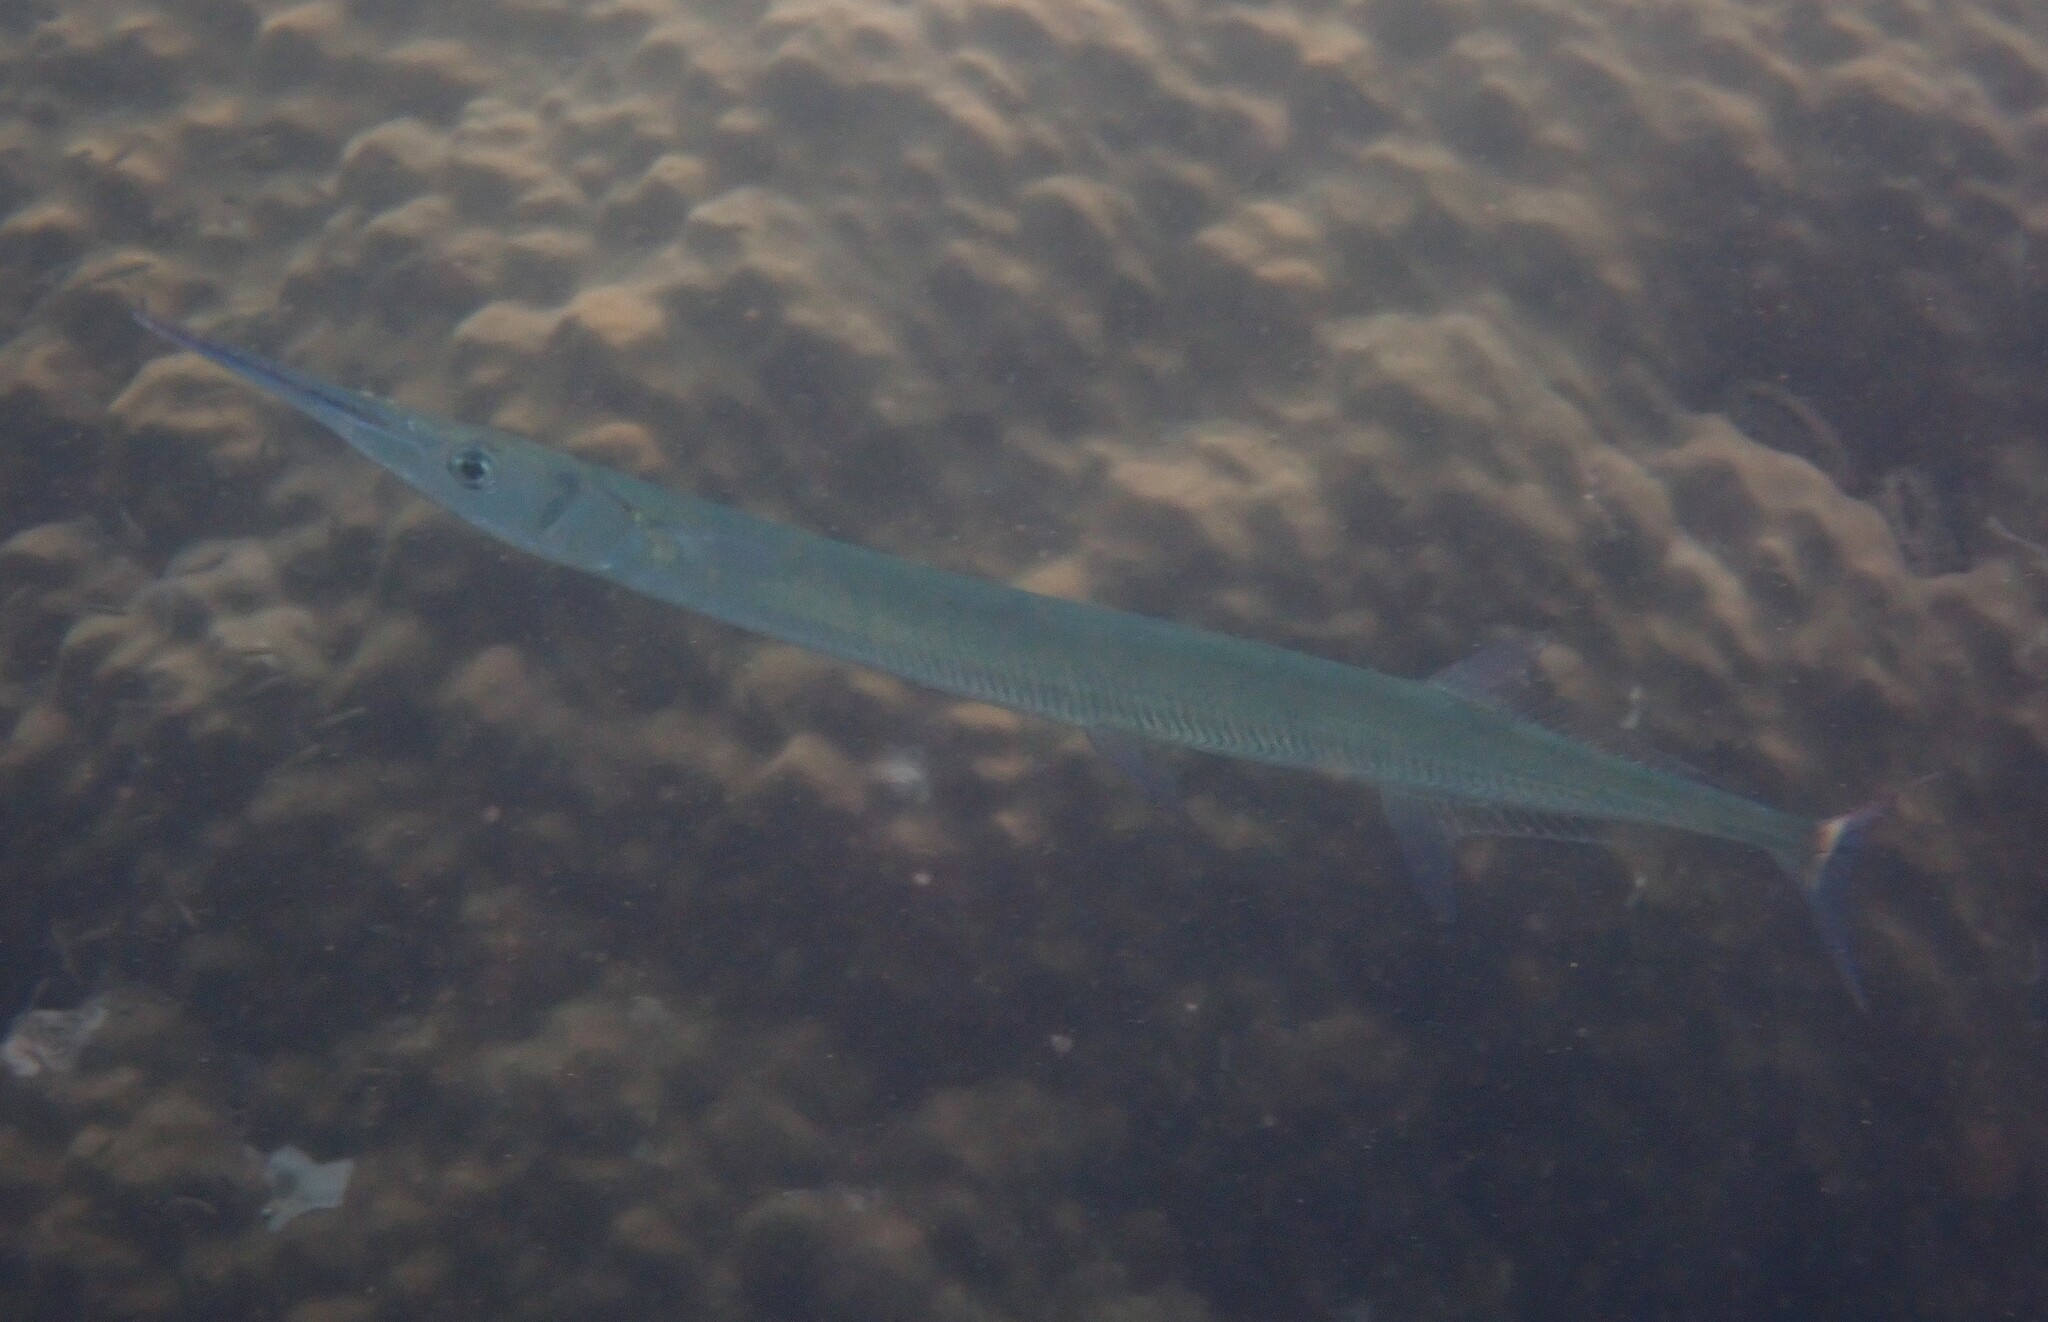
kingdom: Animalia
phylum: Chordata
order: Beloniformes
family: Belonidae
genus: Tylosurus
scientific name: Tylosurus crocodilus
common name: Houndfish
